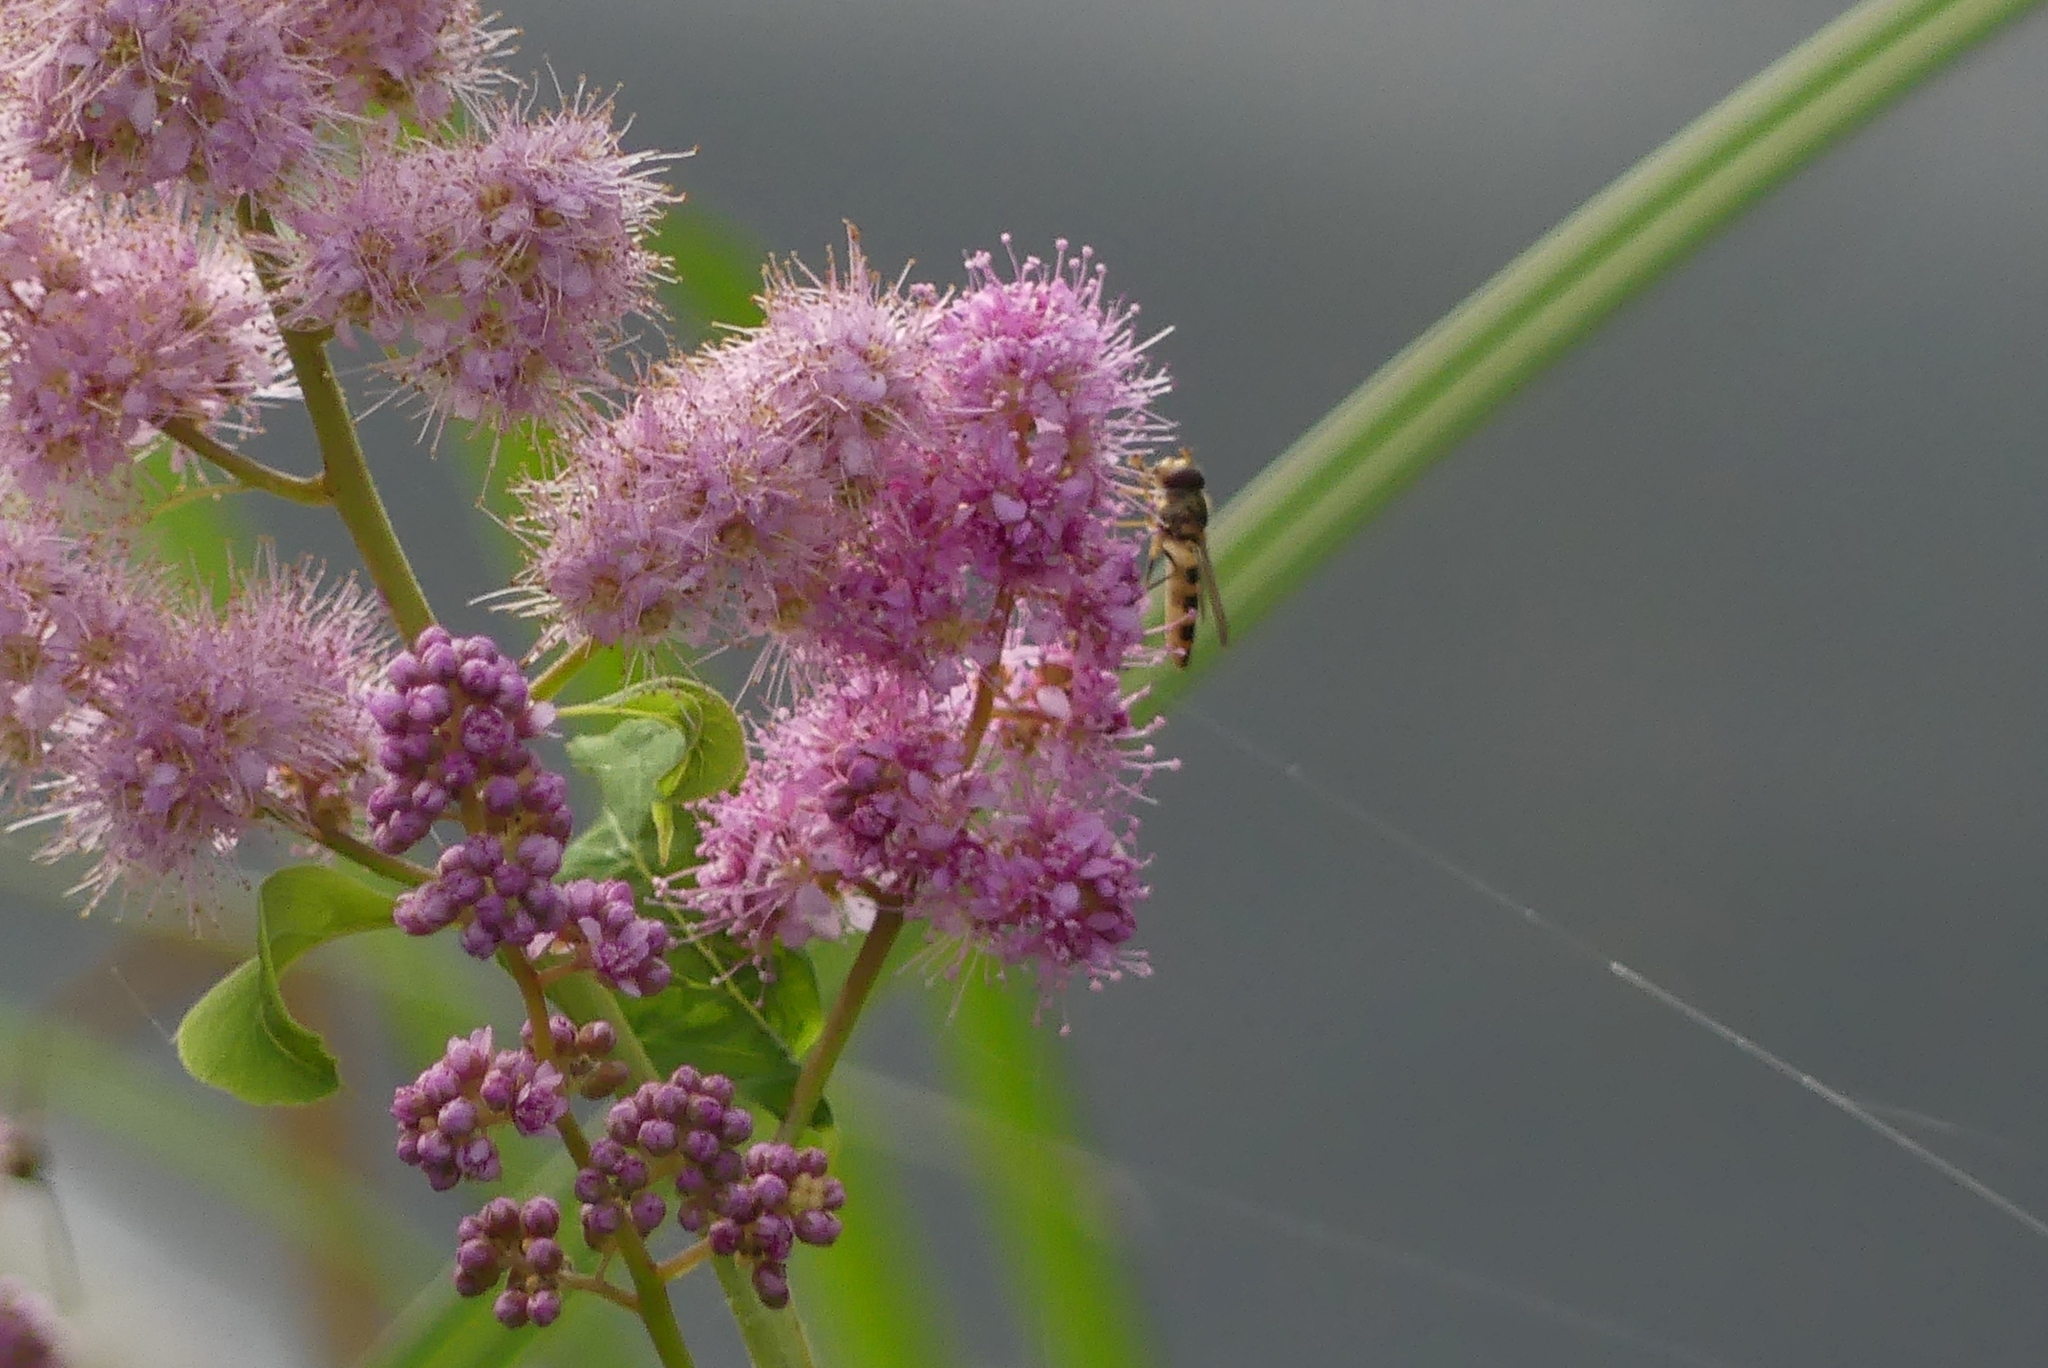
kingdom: Animalia
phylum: Arthropoda
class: Insecta
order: Diptera
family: Syrphidae
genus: Meliscaeva
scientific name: Meliscaeva cinctella
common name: American thintail fly
